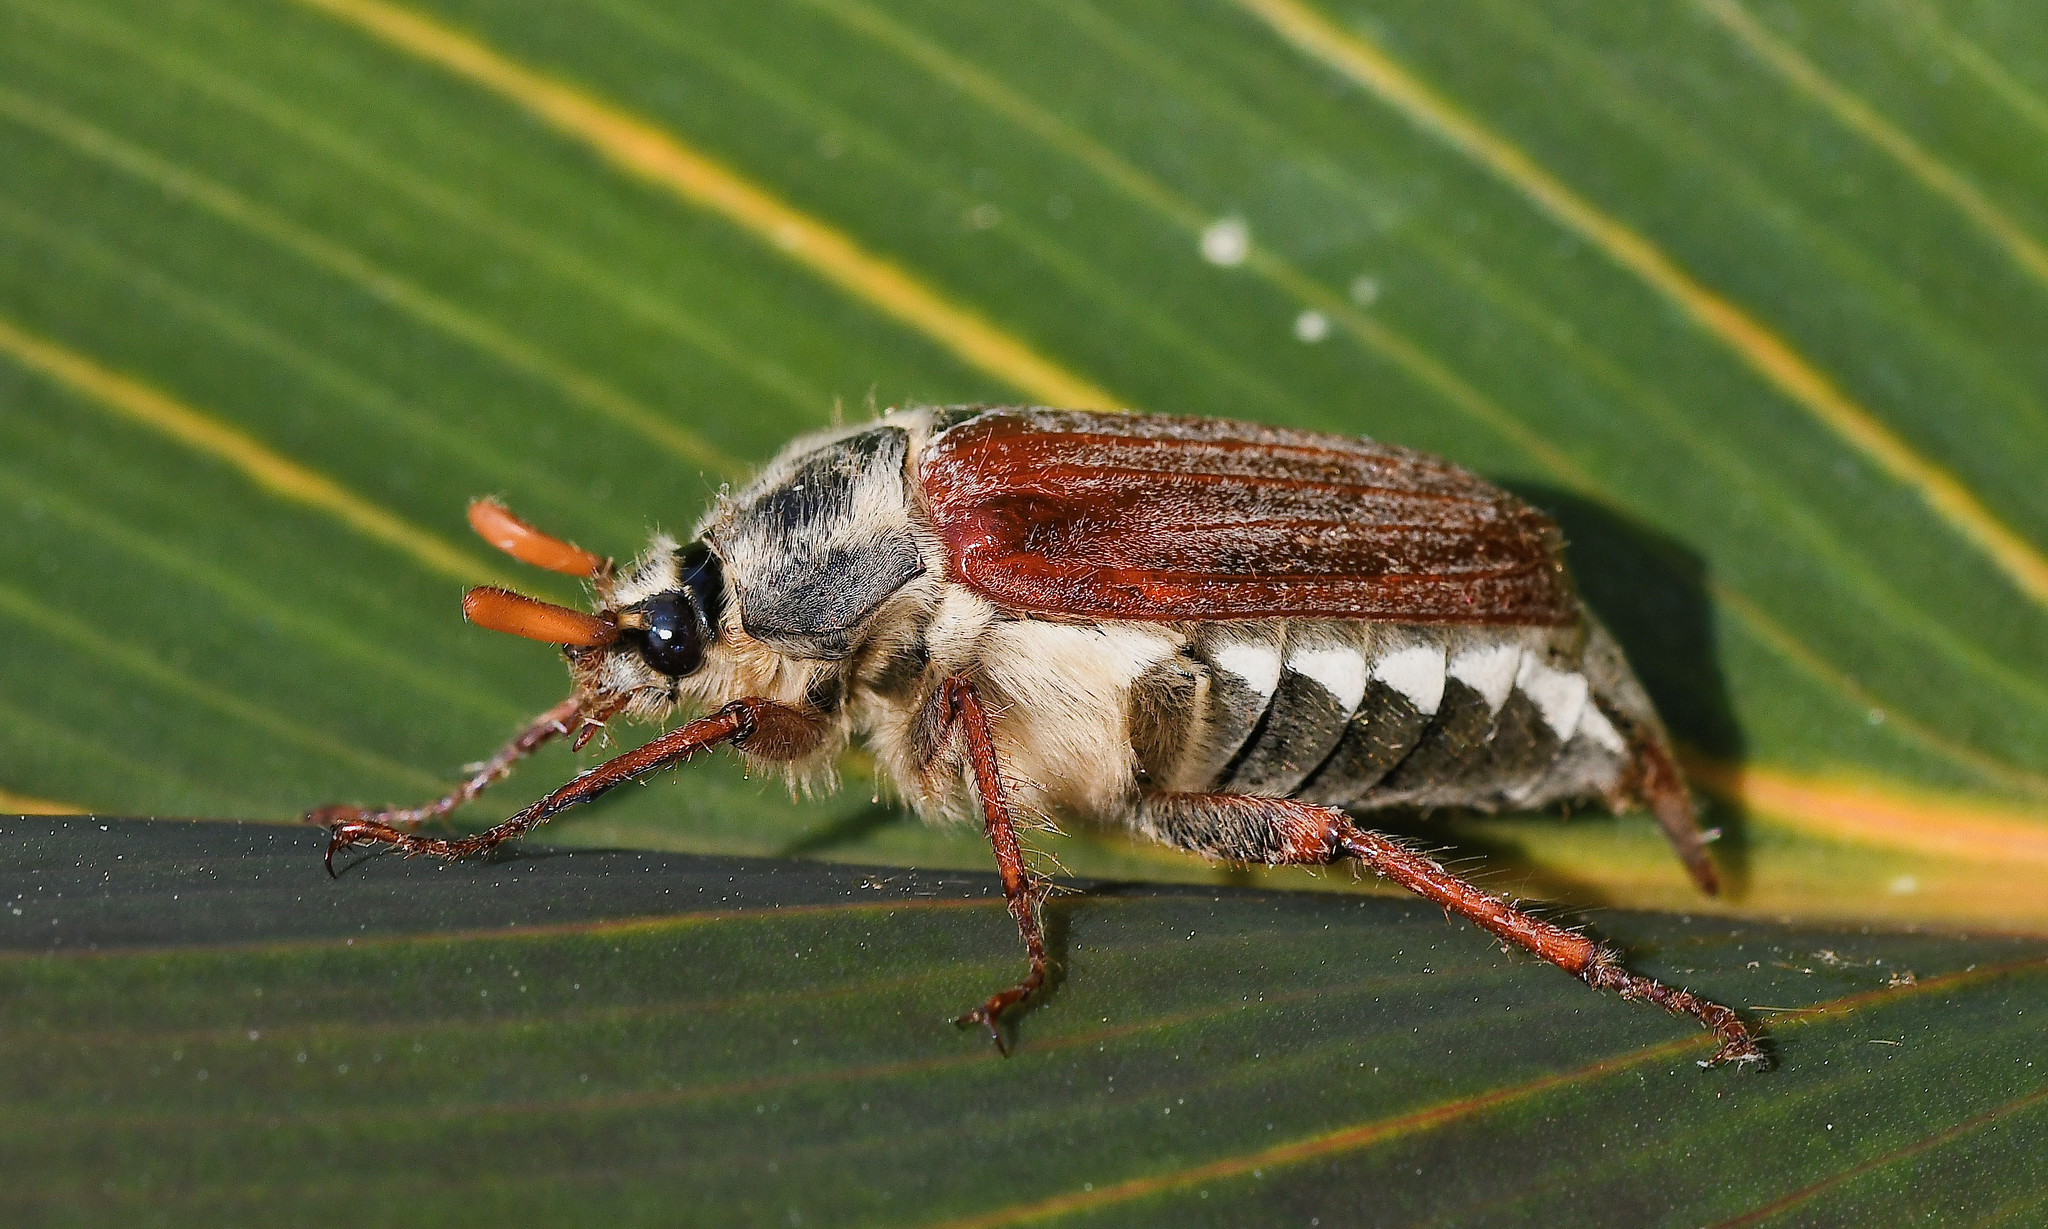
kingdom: Animalia
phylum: Arthropoda
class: Insecta
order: Coleoptera
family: Scarabaeidae
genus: Melolontha
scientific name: Melolontha melolontha
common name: Cockchafer maybeetle
